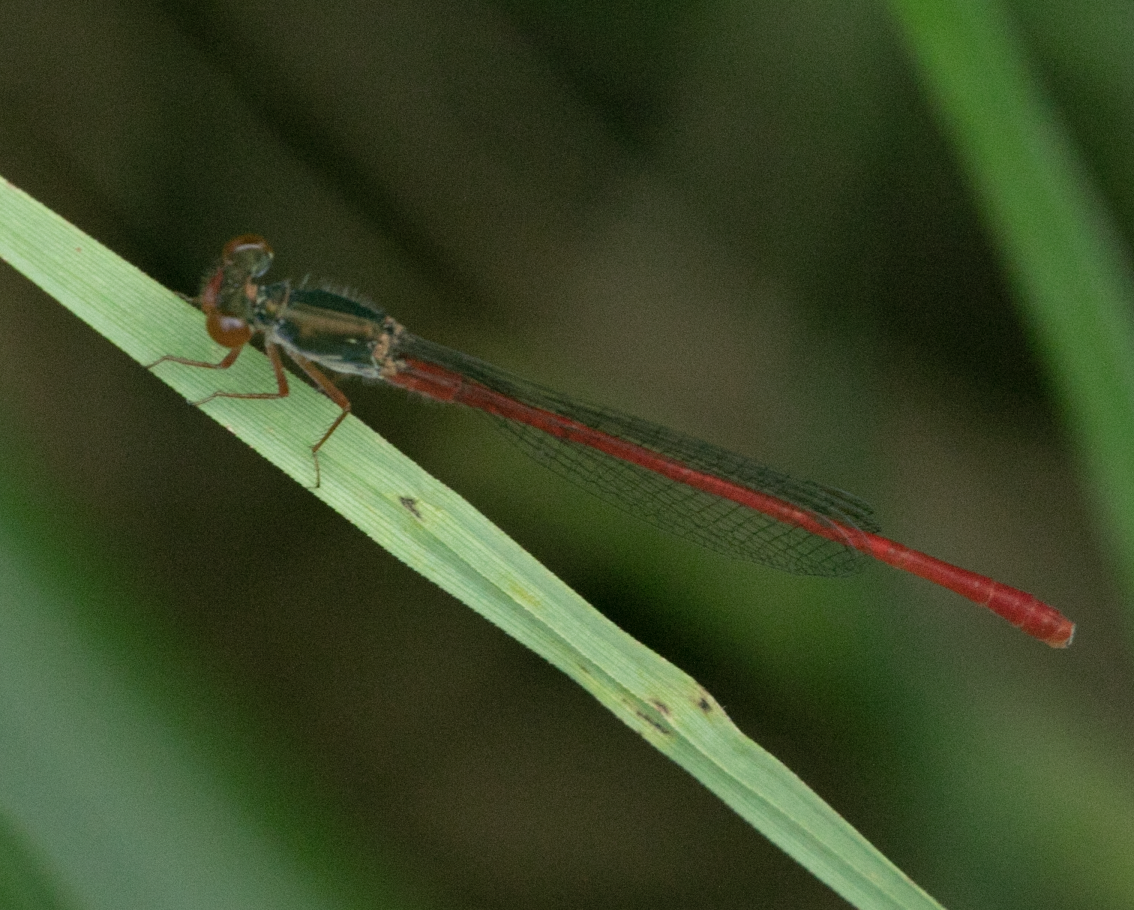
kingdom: Animalia
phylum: Arthropoda
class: Insecta
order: Odonata
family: Coenagrionidae
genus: Ceriagrion
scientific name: Ceriagrion tenellum
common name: Small red damselfly
